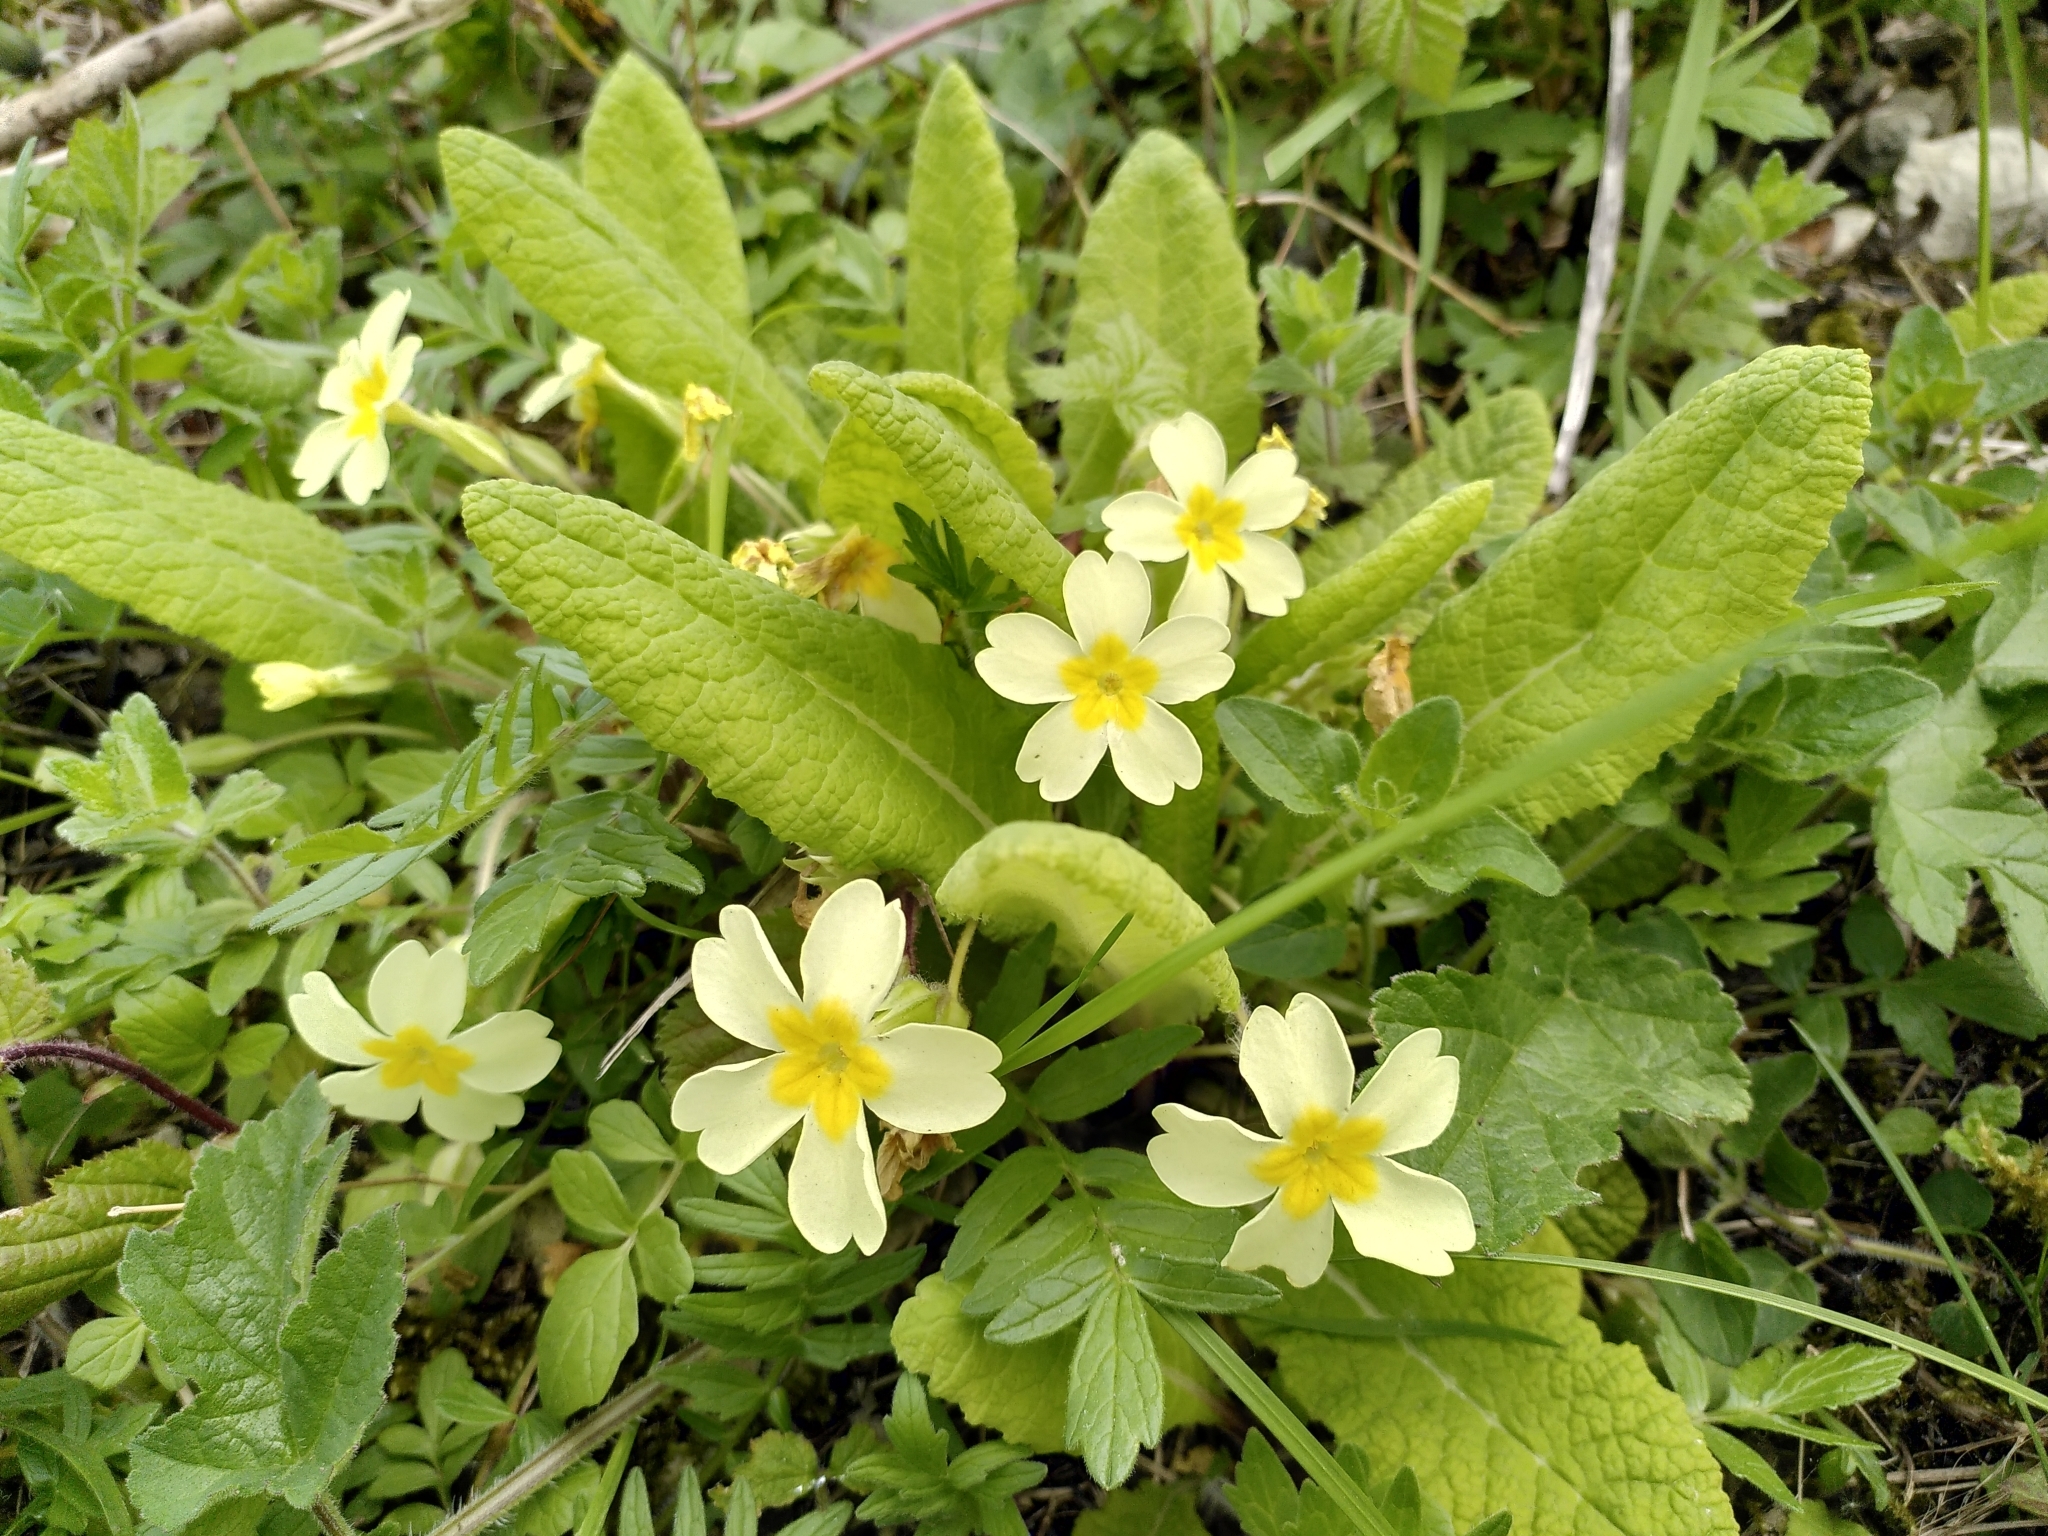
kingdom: Plantae
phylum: Tracheophyta
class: Magnoliopsida
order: Ericales
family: Primulaceae
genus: Primula
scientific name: Primula vulgaris
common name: Primrose
